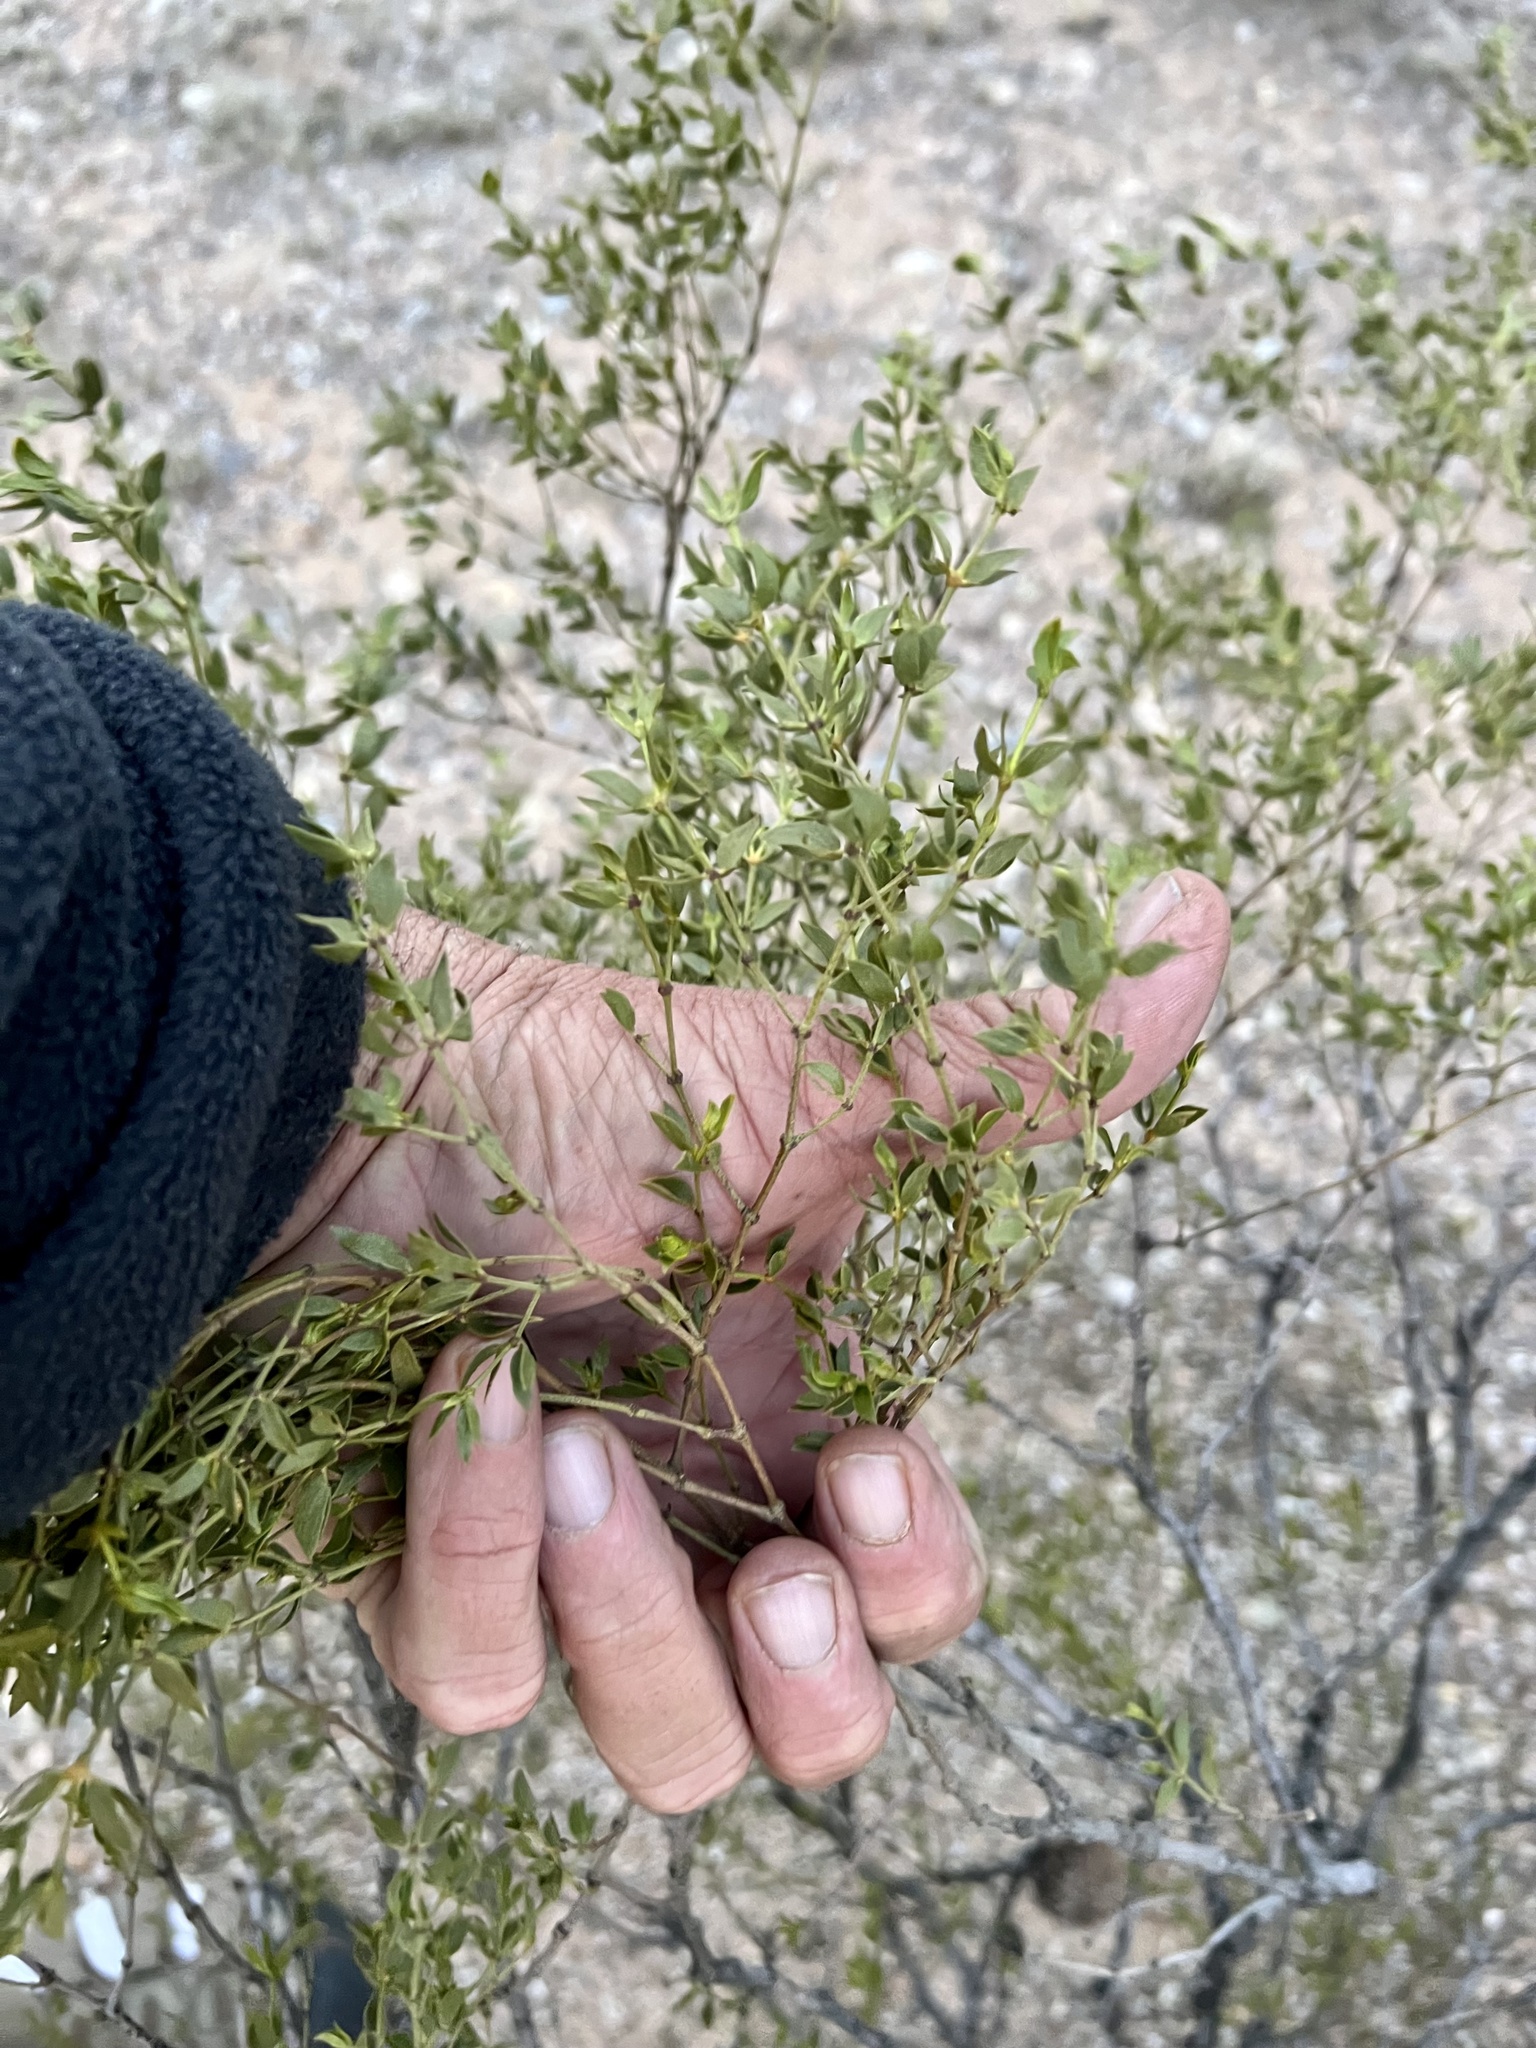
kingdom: Plantae
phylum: Tracheophyta
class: Magnoliopsida
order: Zygophyllales
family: Zygophyllaceae
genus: Larrea
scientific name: Larrea tridentata
